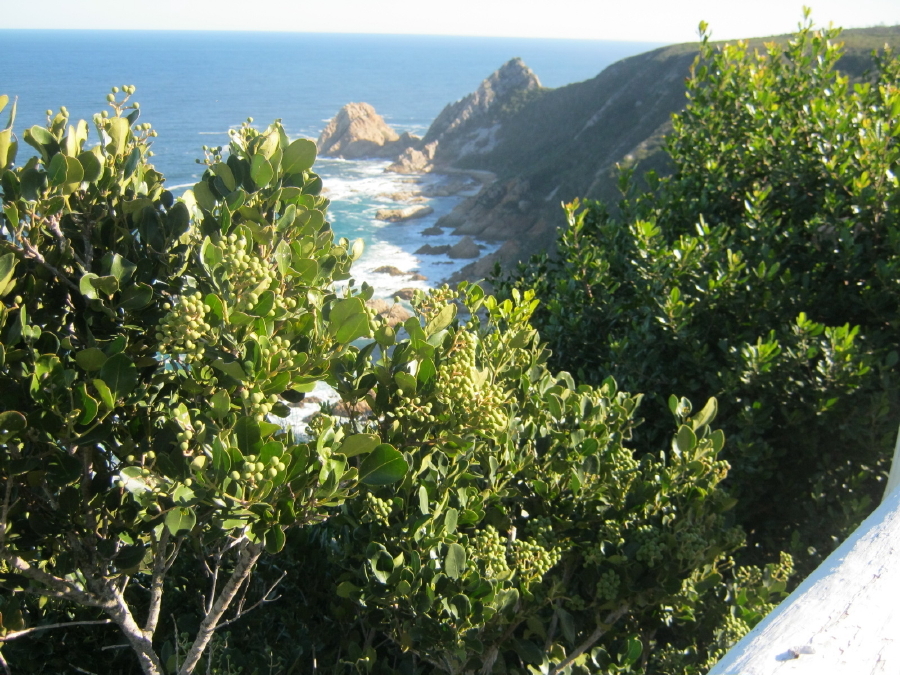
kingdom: Plantae
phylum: Tracheophyta
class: Magnoliopsida
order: Lamiales
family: Oleaceae
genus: Olea
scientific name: Olea capensis
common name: Black ironwood
